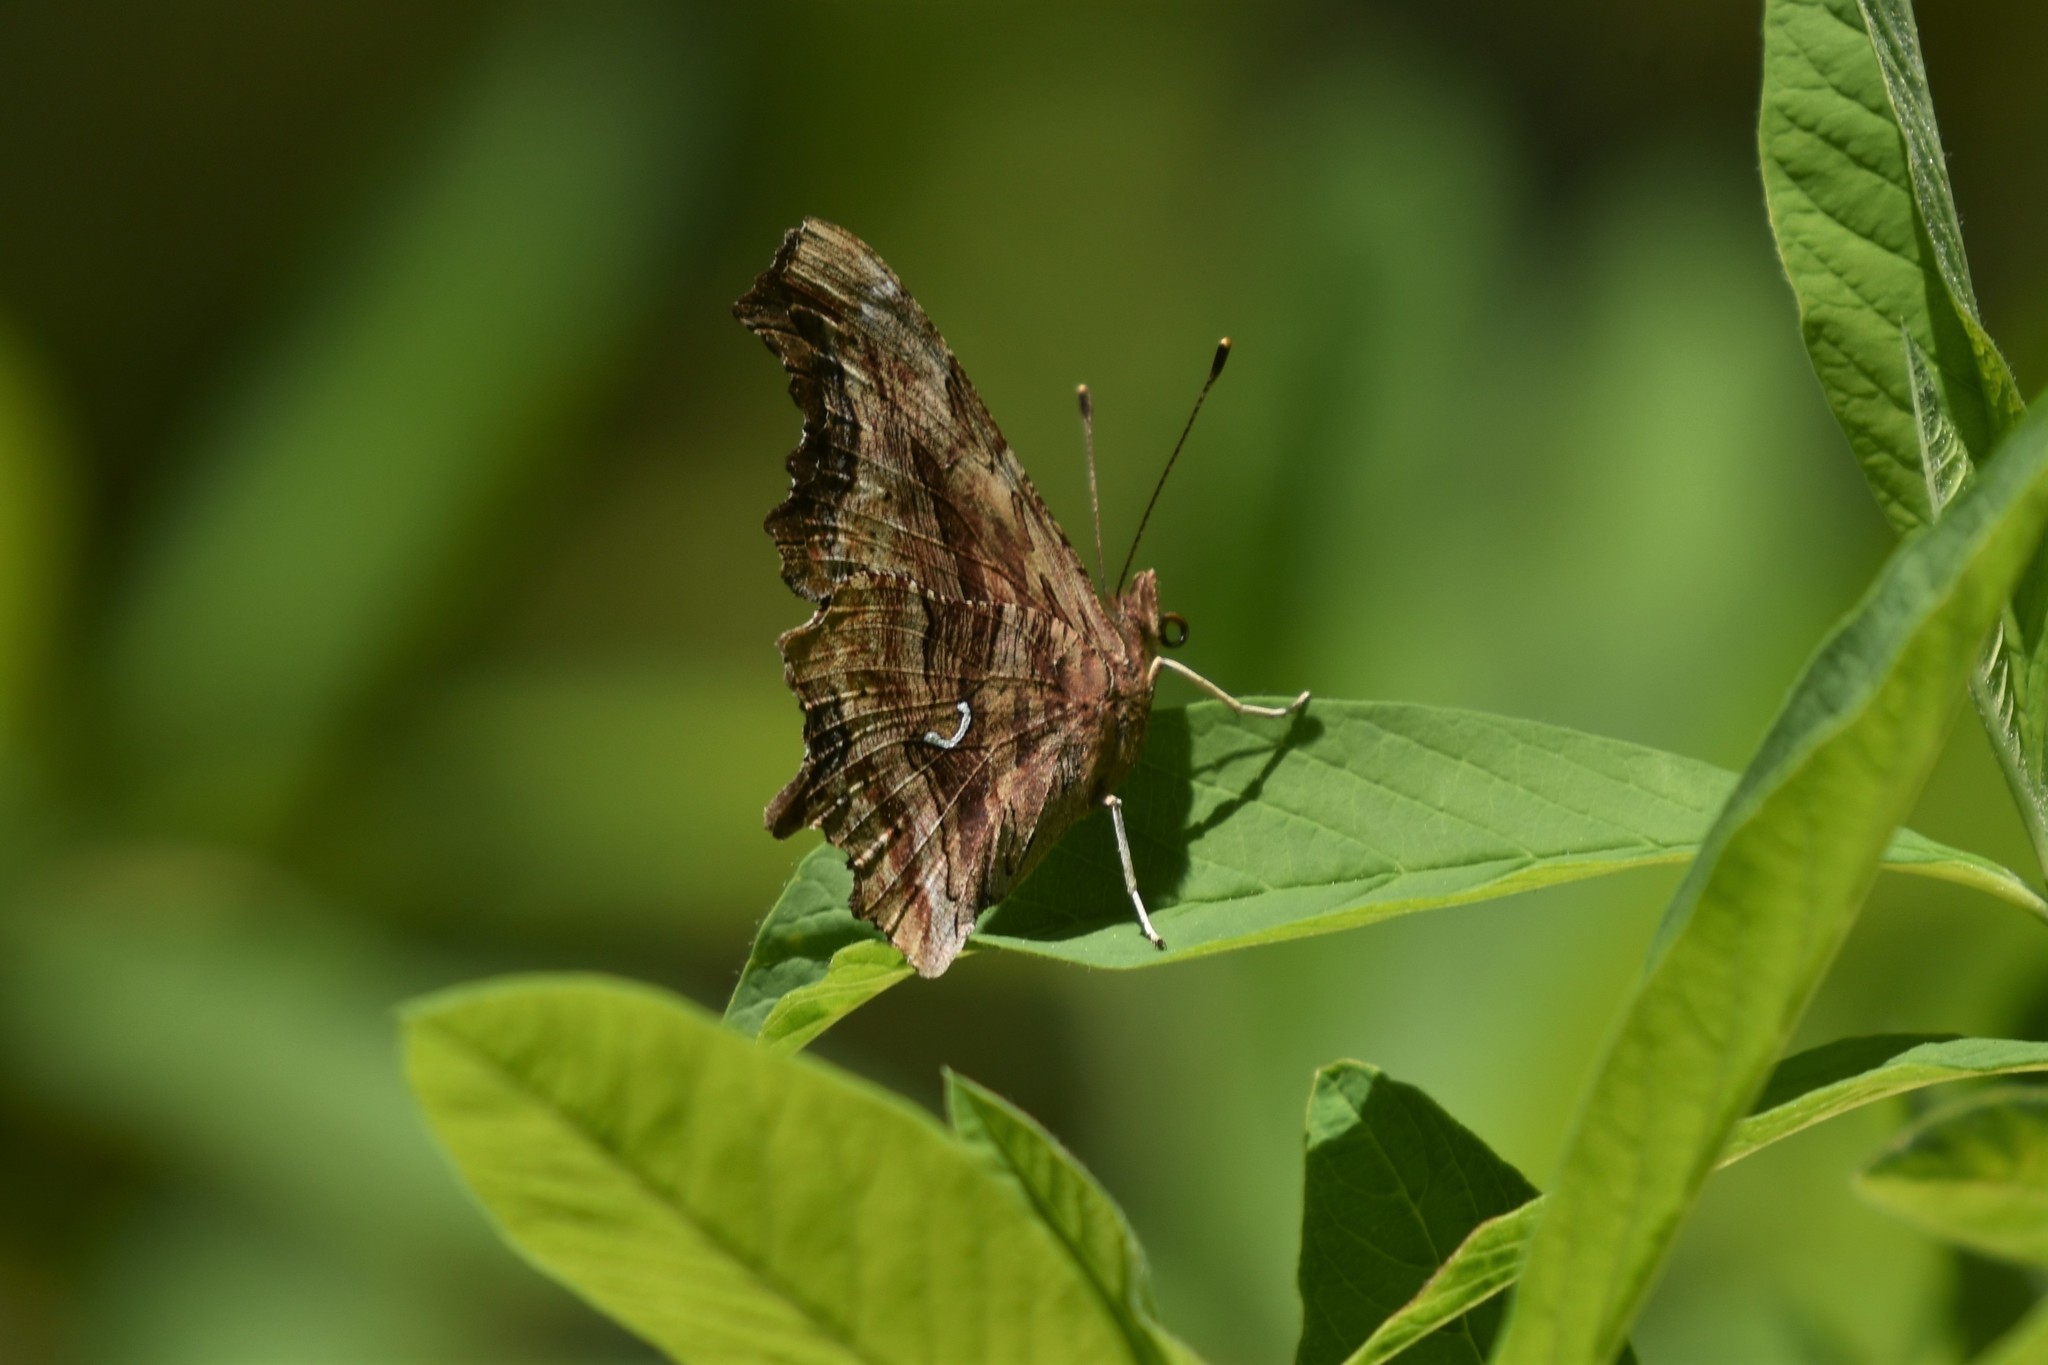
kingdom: Animalia
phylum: Arthropoda
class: Insecta
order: Lepidoptera
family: Nymphalidae
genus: Polygonia
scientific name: Polygonia satyrus
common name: Satyr angle wing
